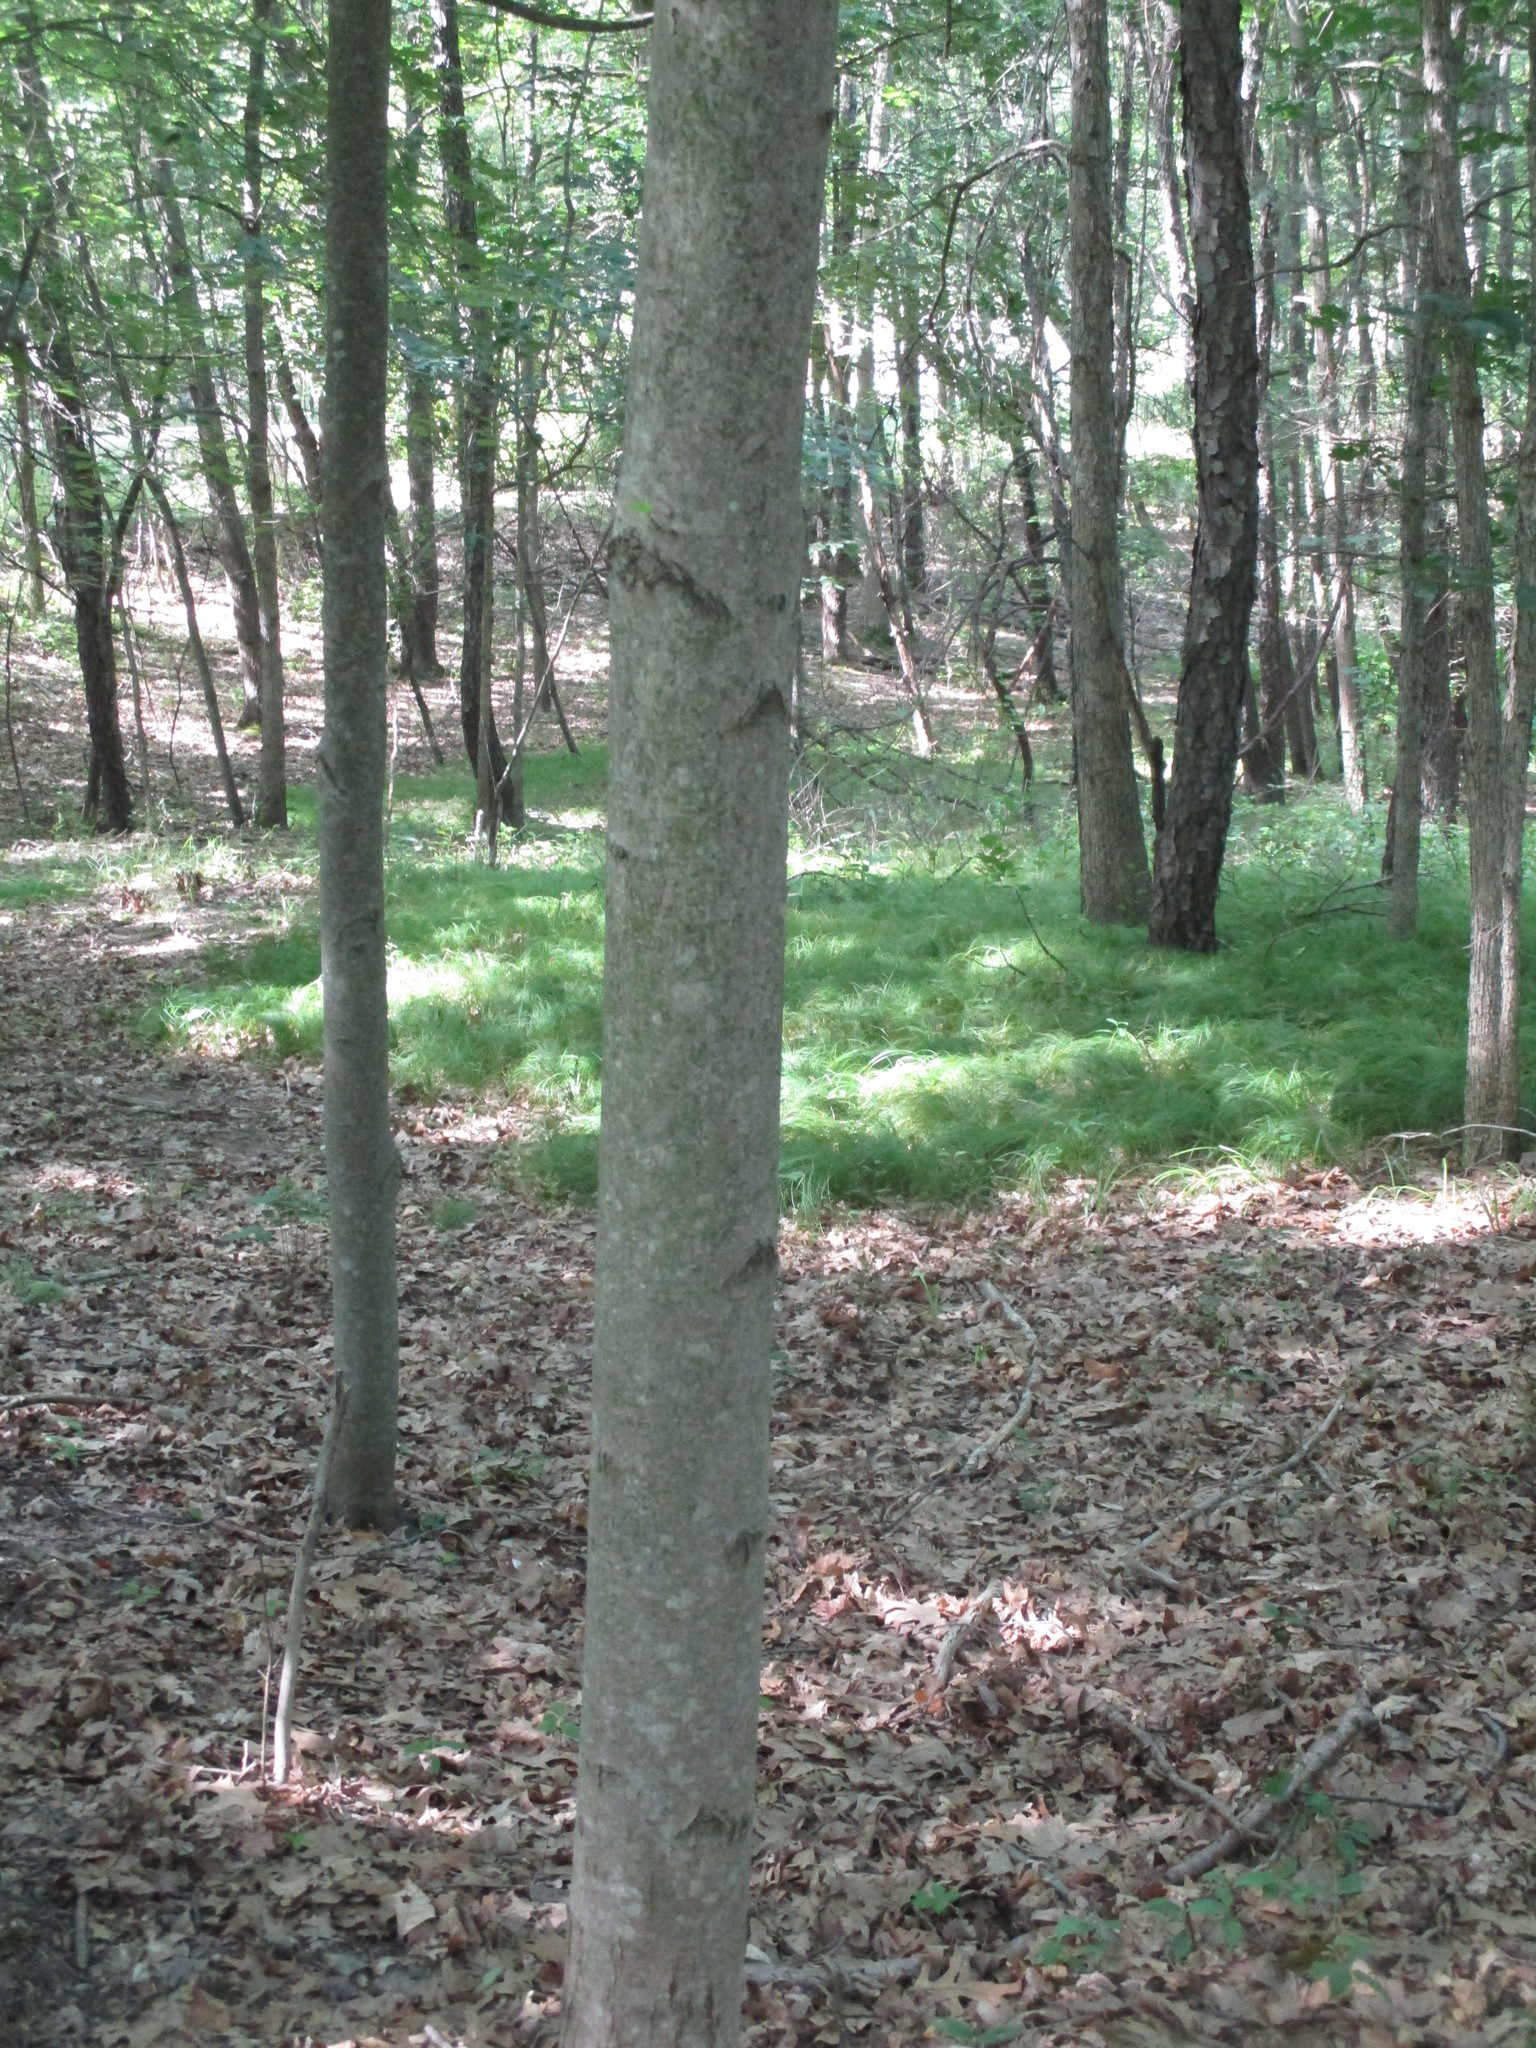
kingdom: Plantae
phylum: Tracheophyta
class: Magnoliopsida
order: Sapindales
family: Sapindaceae
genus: Acer
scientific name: Acer freemanii
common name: Freeman maple
